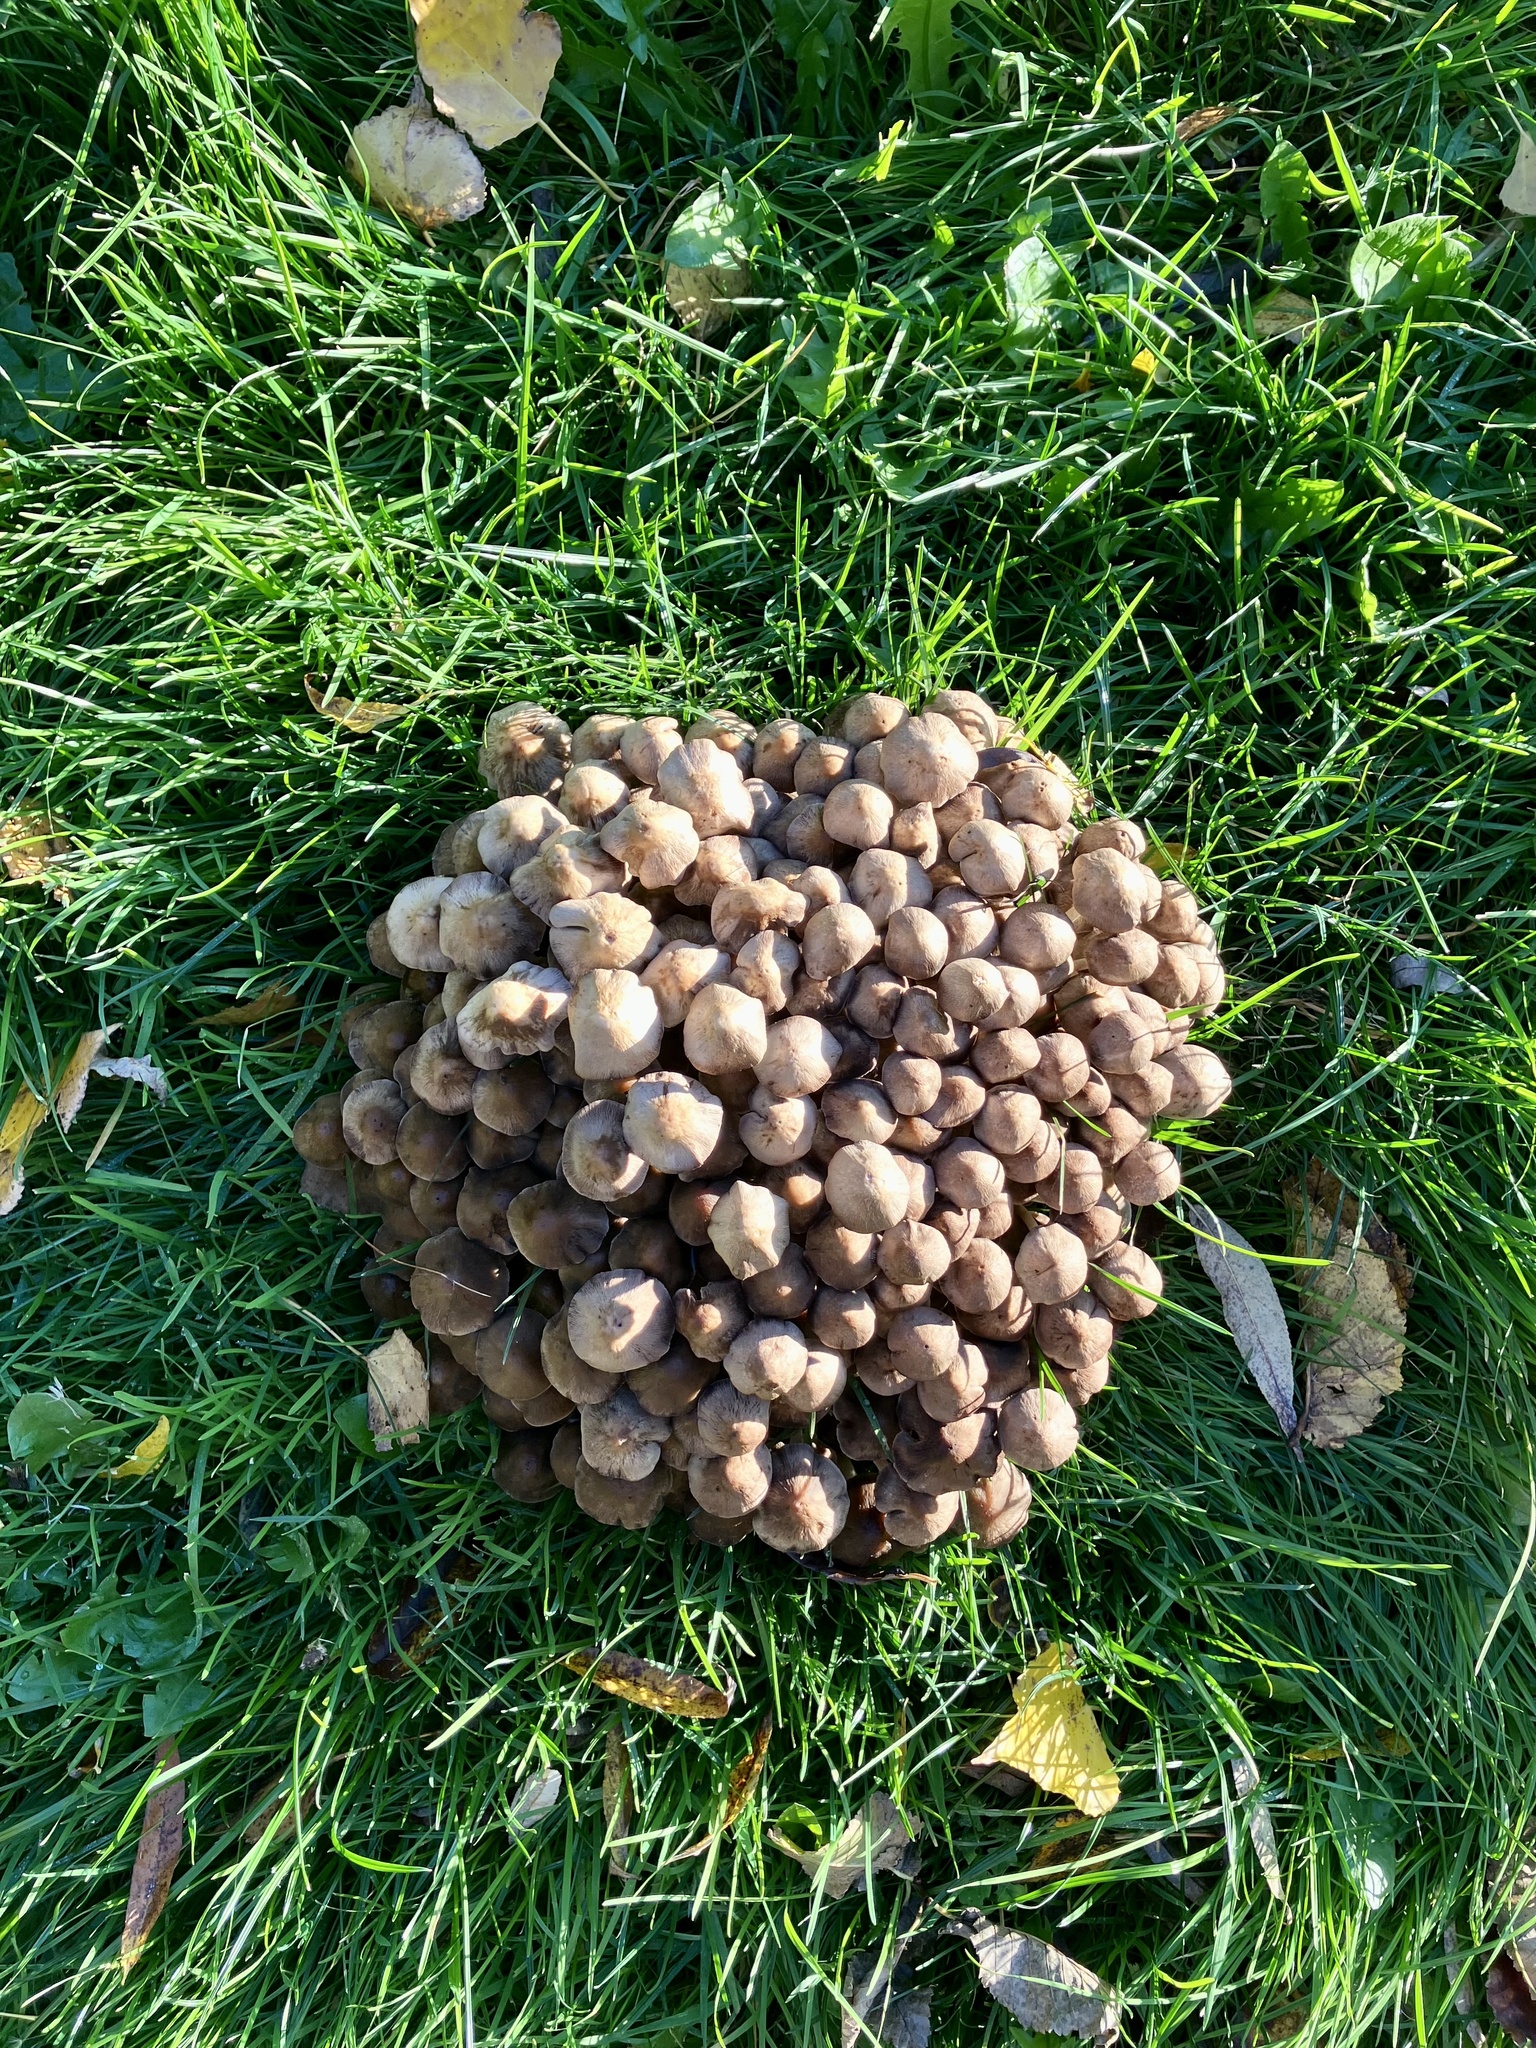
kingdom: Fungi
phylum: Basidiomycota
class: Agaricomycetes
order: Agaricales
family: Psathyrellaceae
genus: Britzelmayria
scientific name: Britzelmayria multipedata
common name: Clustered brittlestem
